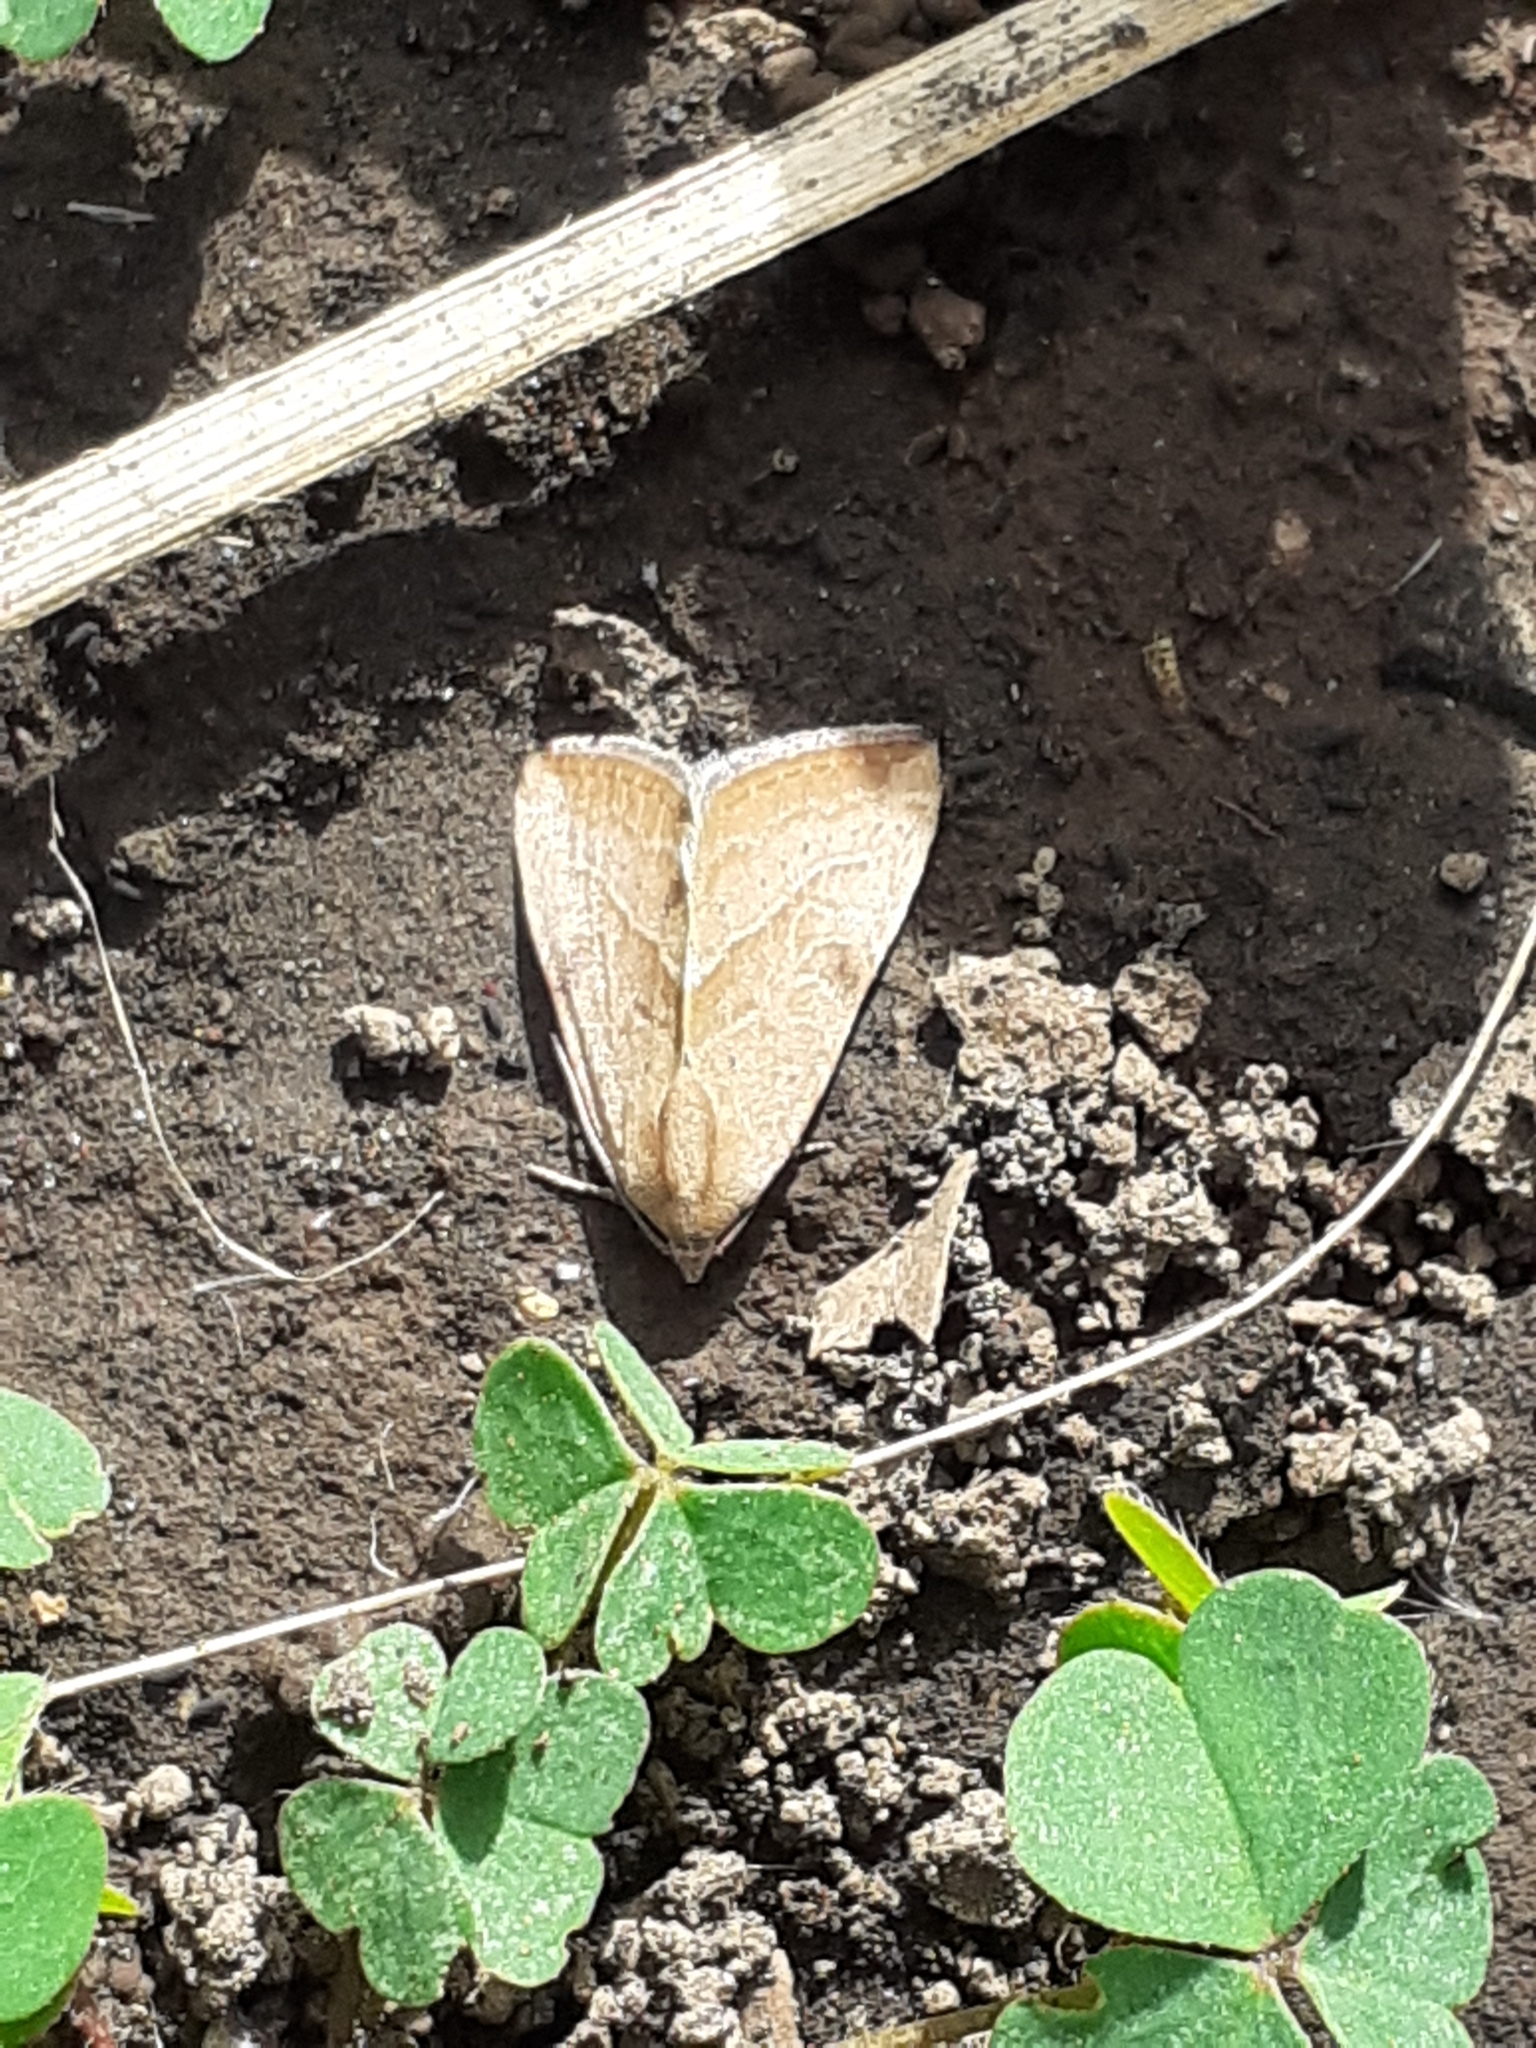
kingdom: Animalia
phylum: Arthropoda
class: Insecta
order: Lepidoptera
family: Noctuidae
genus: Galgula
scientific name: Galgula partita
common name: Wedgeling
